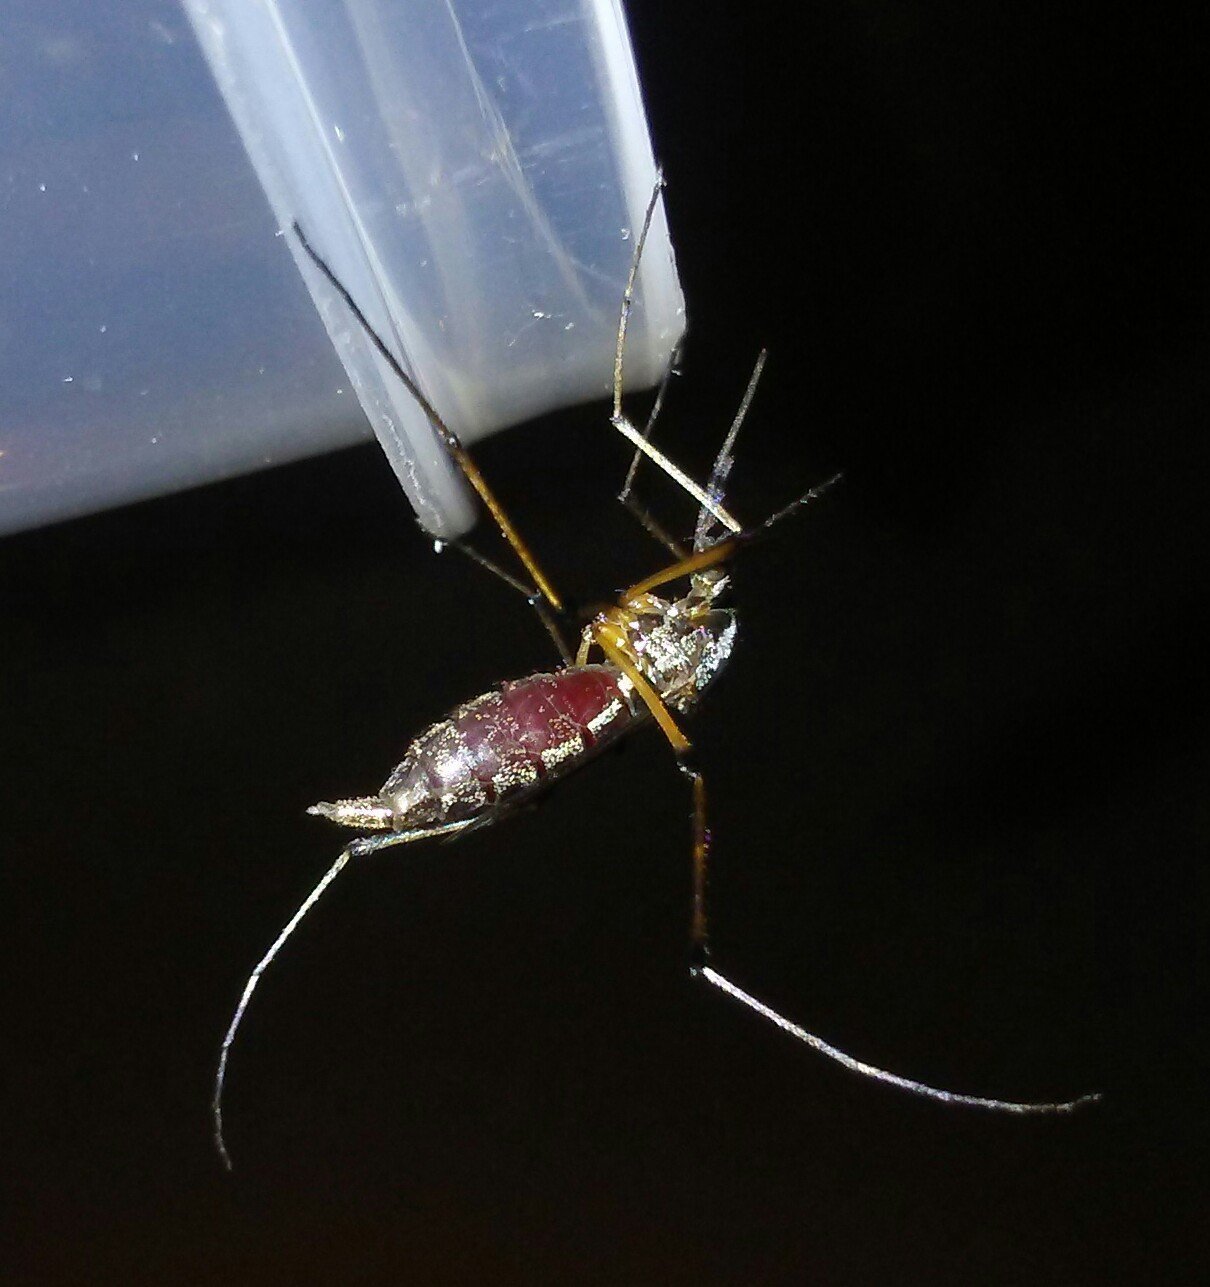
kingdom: Animalia
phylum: Arthropoda
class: Insecta
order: Diptera
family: Culicidae
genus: Psorophora
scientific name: Psorophora howardii
